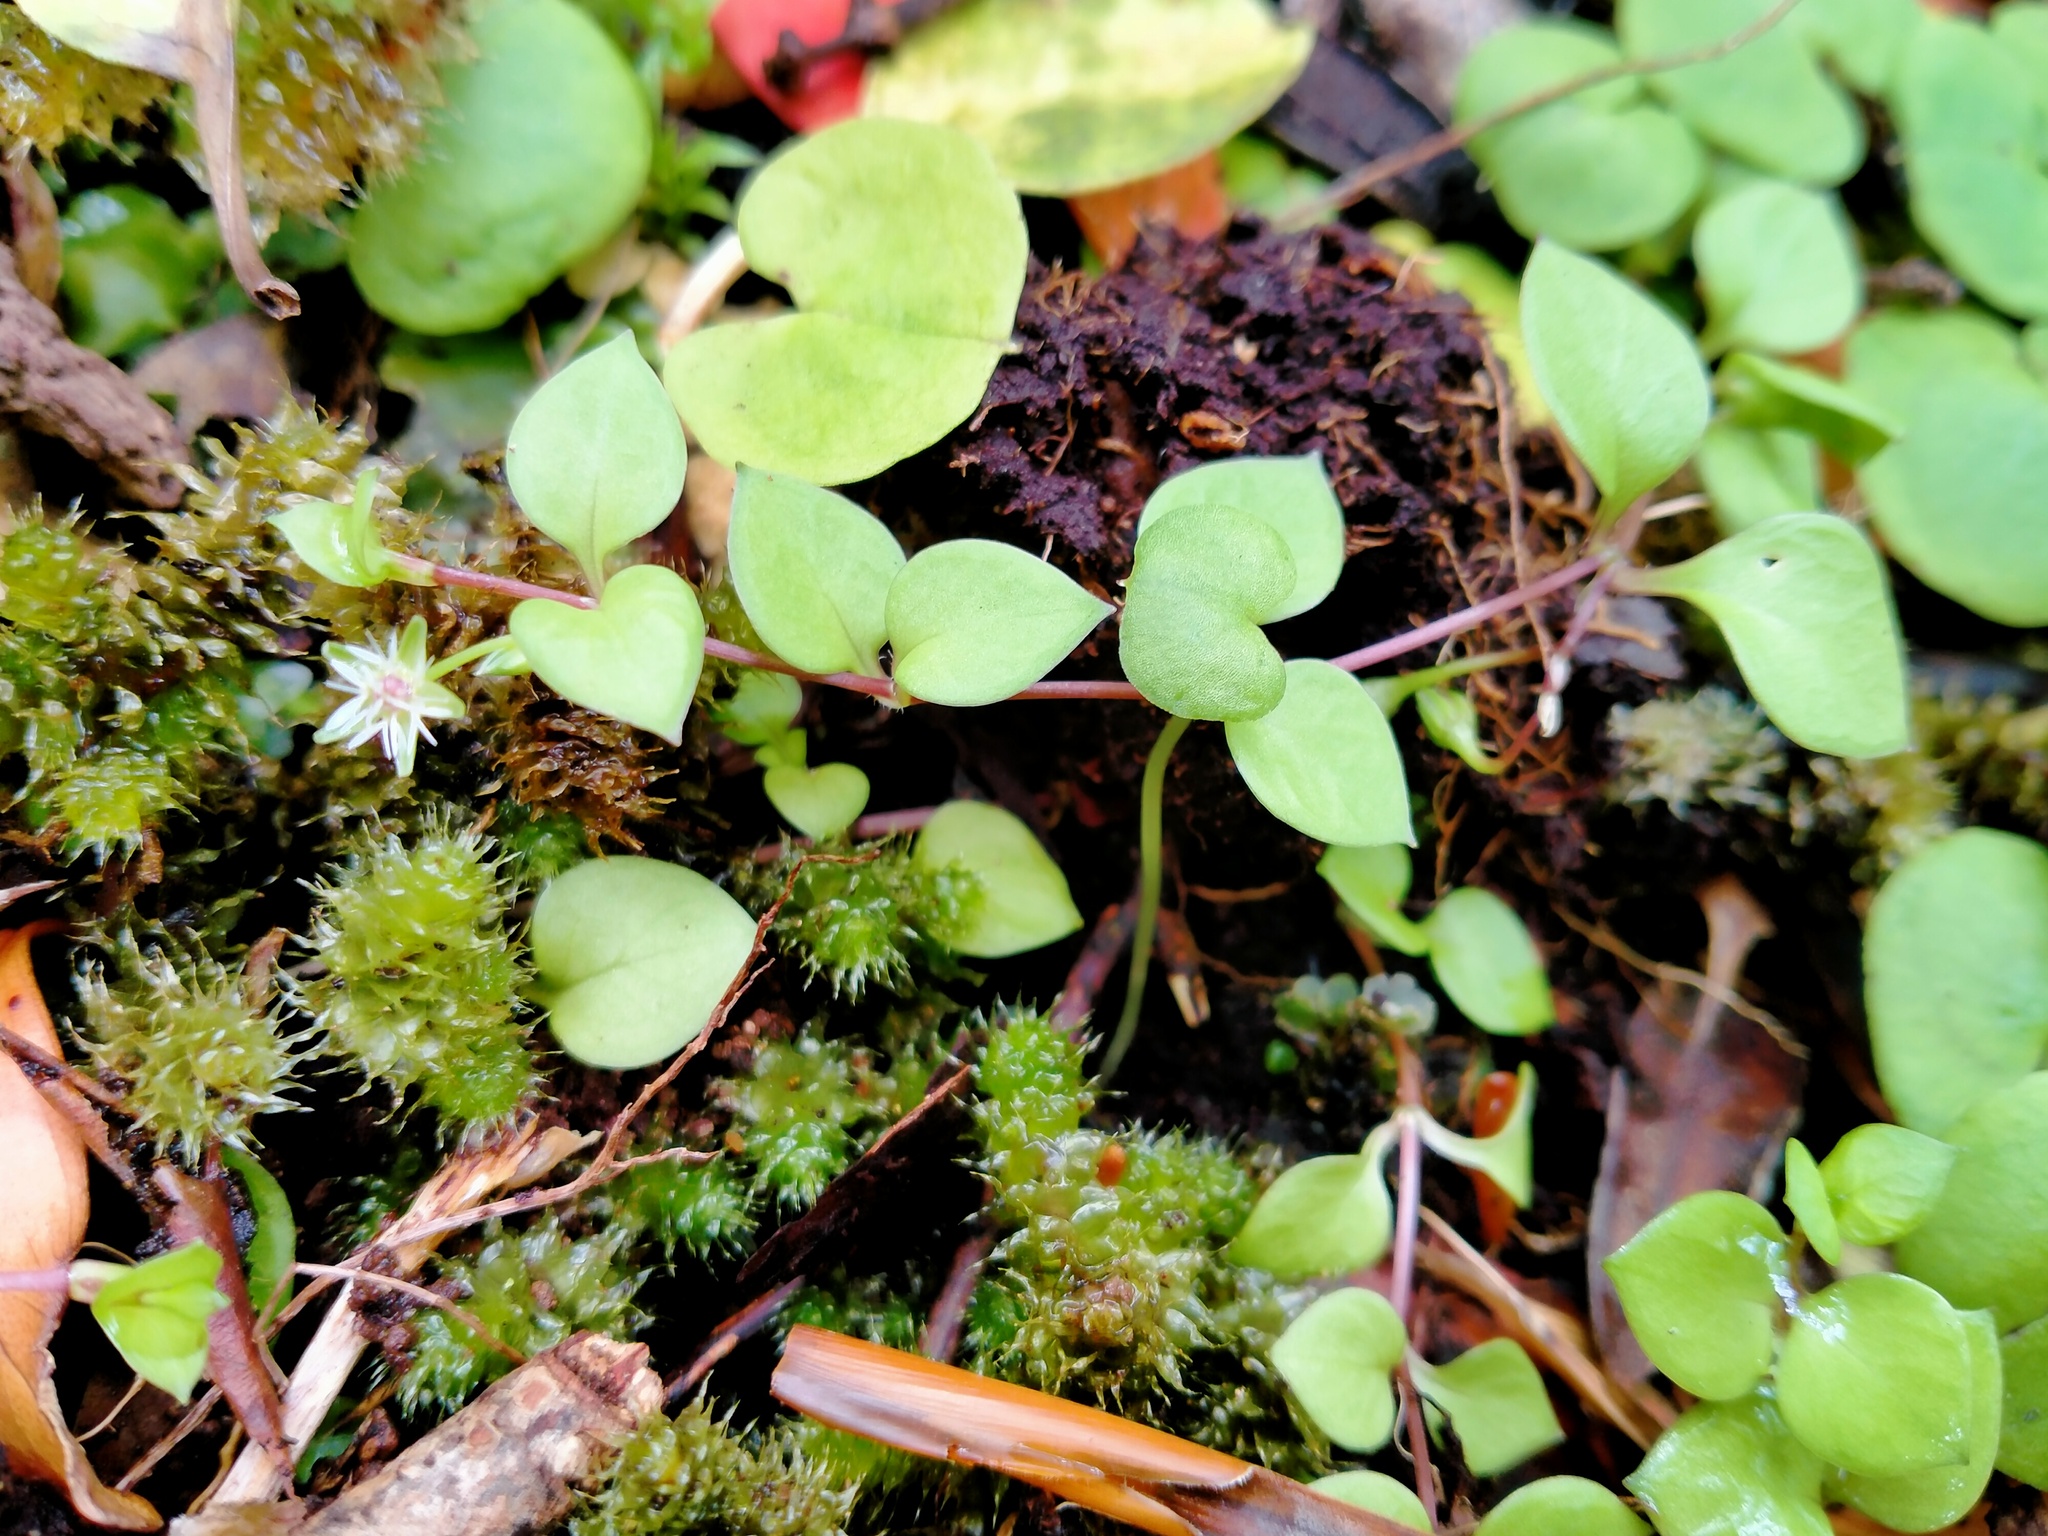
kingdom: Plantae
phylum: Tracheophyta
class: Magnoliopsida
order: Caryophyllales
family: Caryophyllaceae
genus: Stellaria
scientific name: Stellaria decipiens
